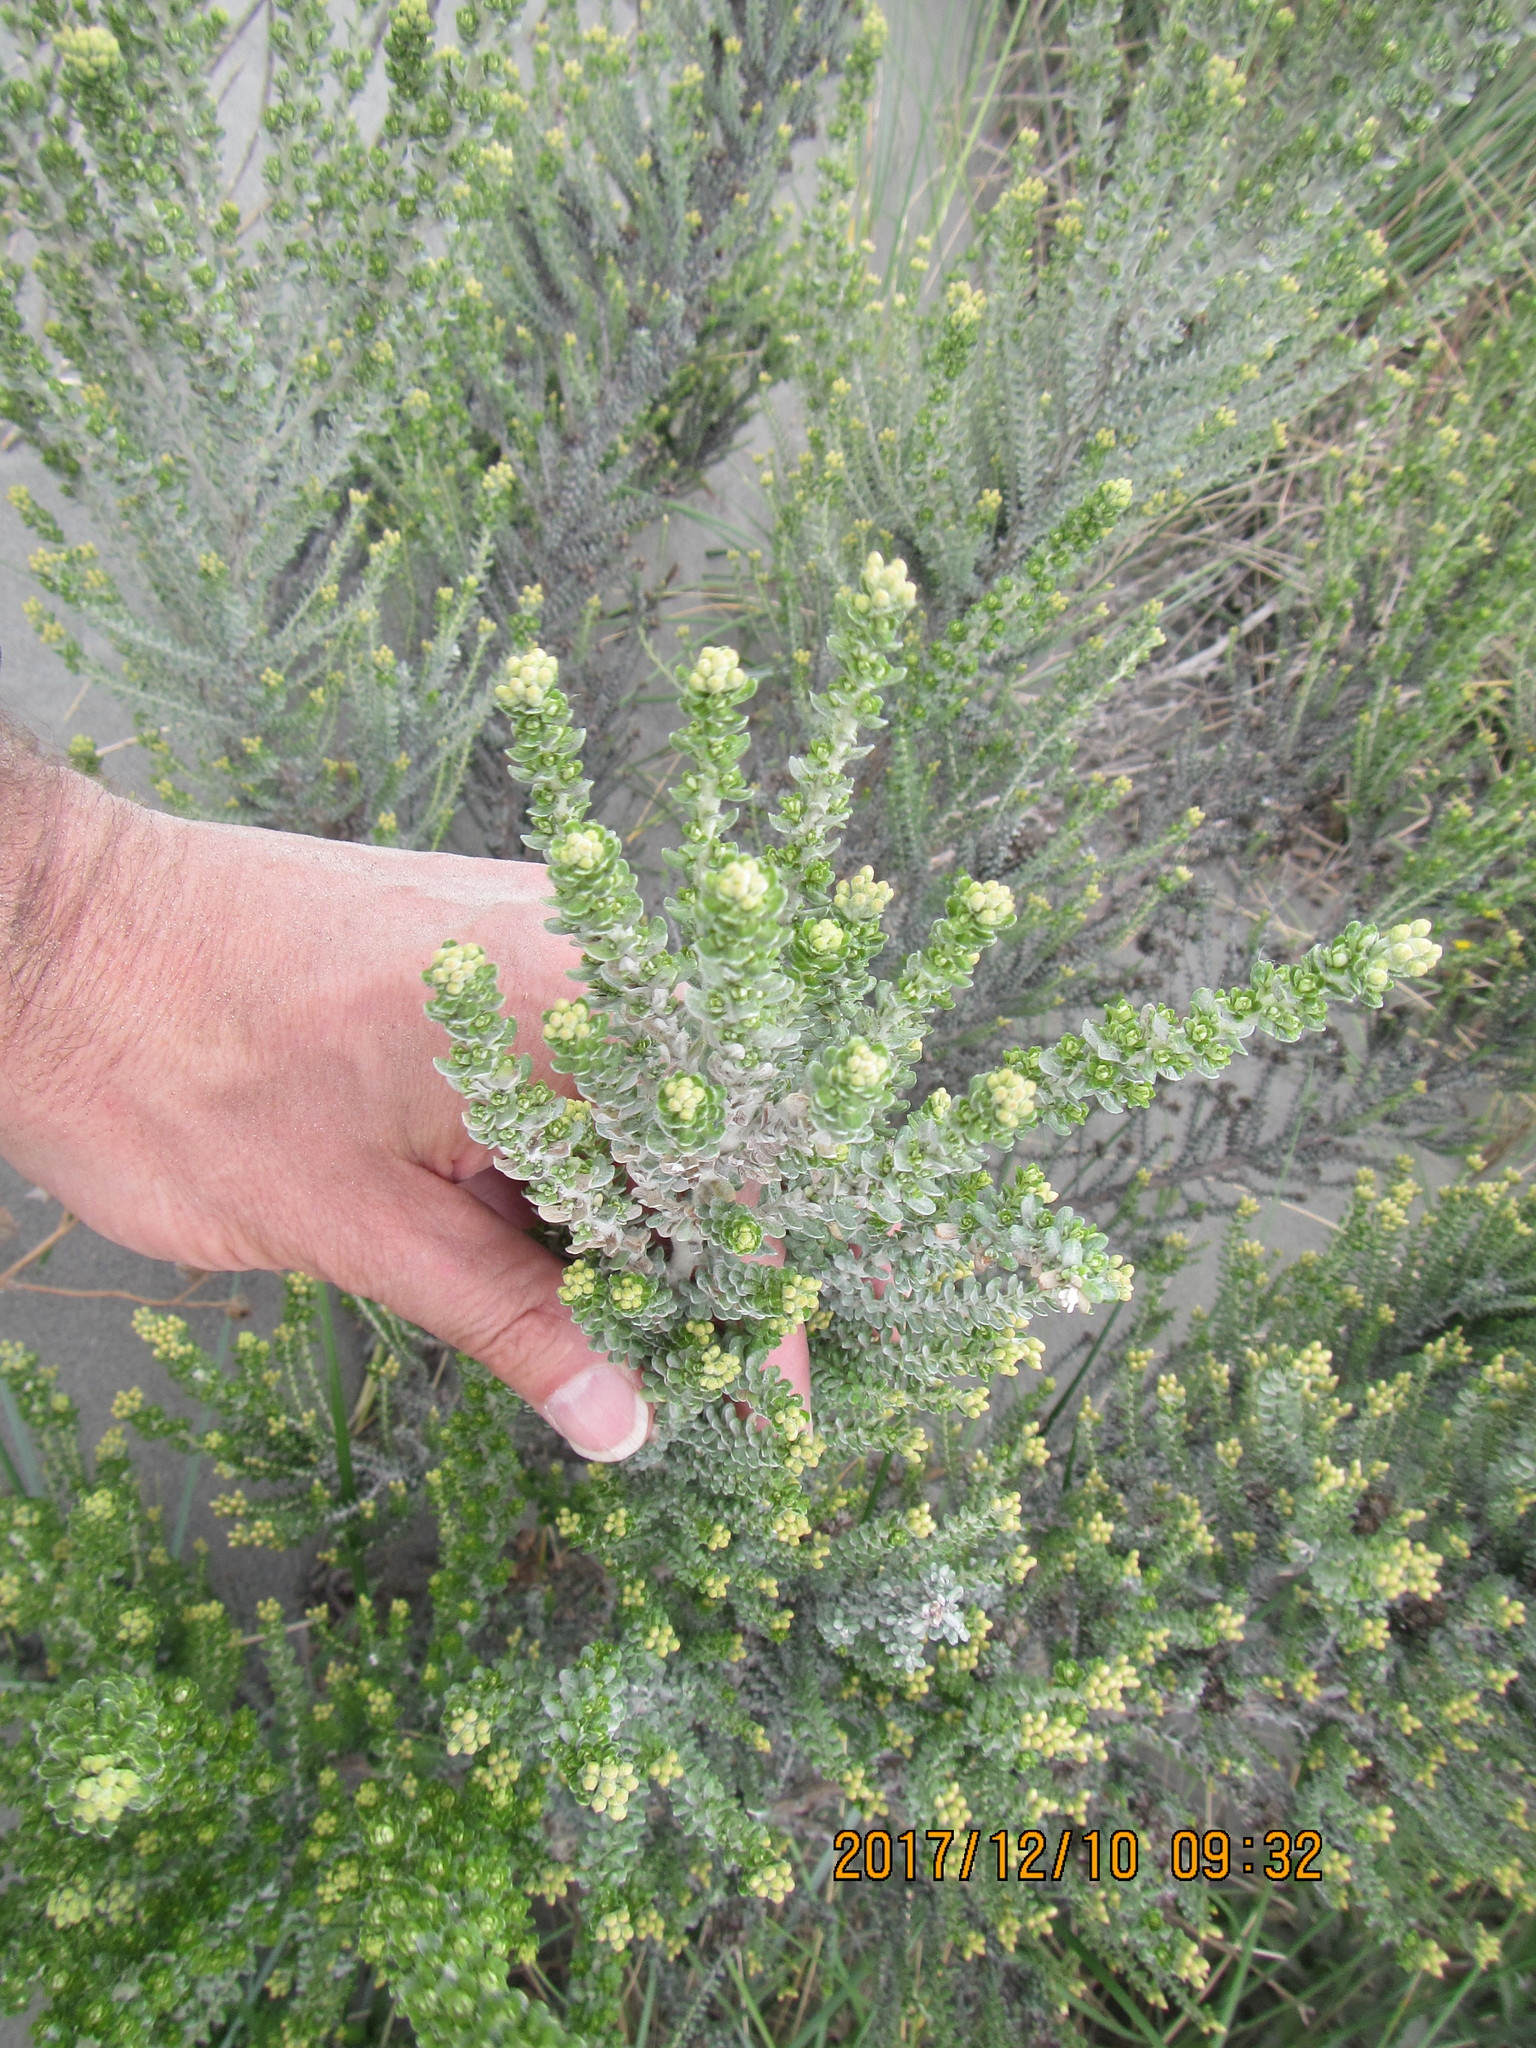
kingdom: Plantae
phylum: Tracheophyta
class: Magnoliopsida
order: Asterales
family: Asteraceae
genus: Ozothamnus
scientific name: Ozothamnus leptophyllus
